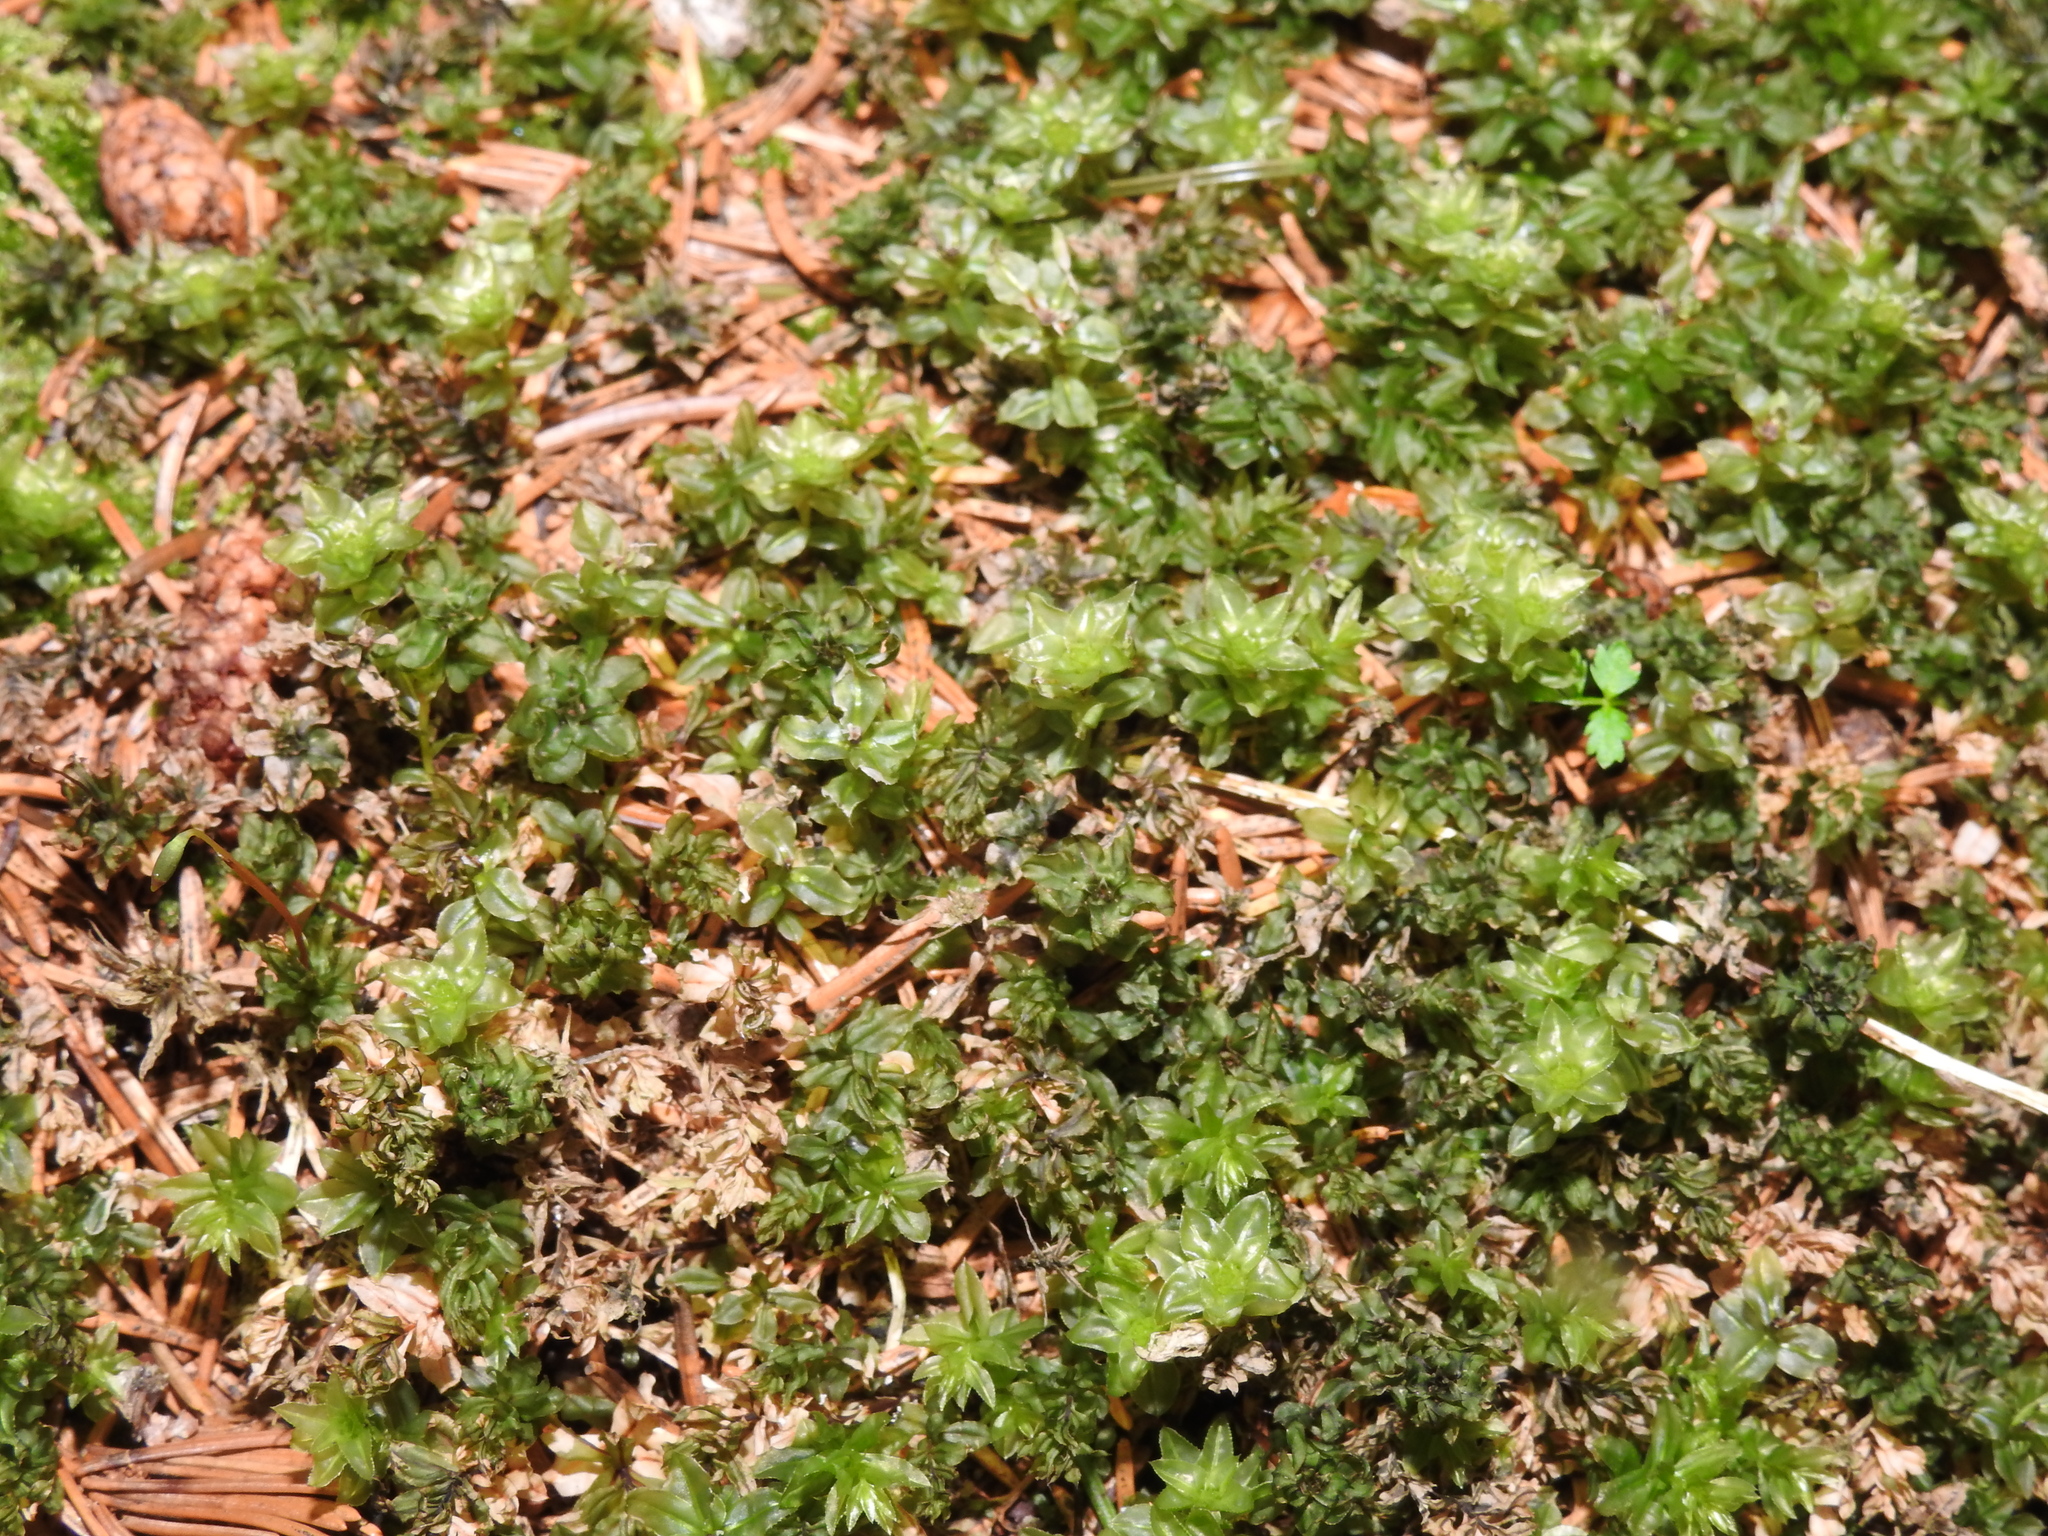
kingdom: Plantae
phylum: Bryophyta
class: Bryopsida
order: Bryales
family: Mniaceae
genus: Mnium
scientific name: Mnium spinosum
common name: Spinose thyme-moss
